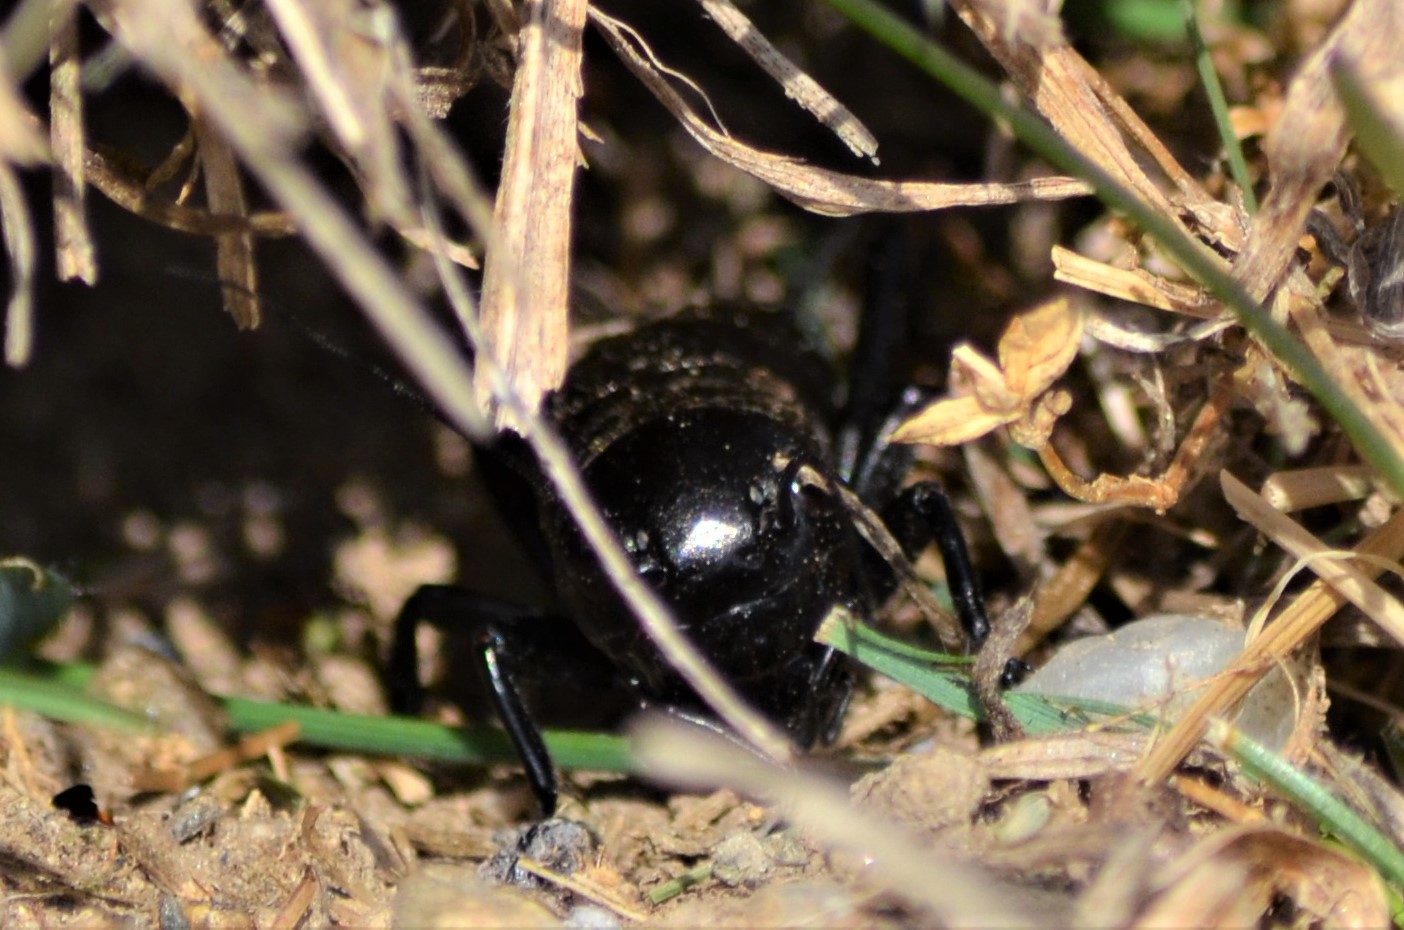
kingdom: Animalia
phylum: Arthropoda
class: Insecta
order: Orthoptera
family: Gryllidae
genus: Gryllus
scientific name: Gryllus campestris
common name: Field cricket
